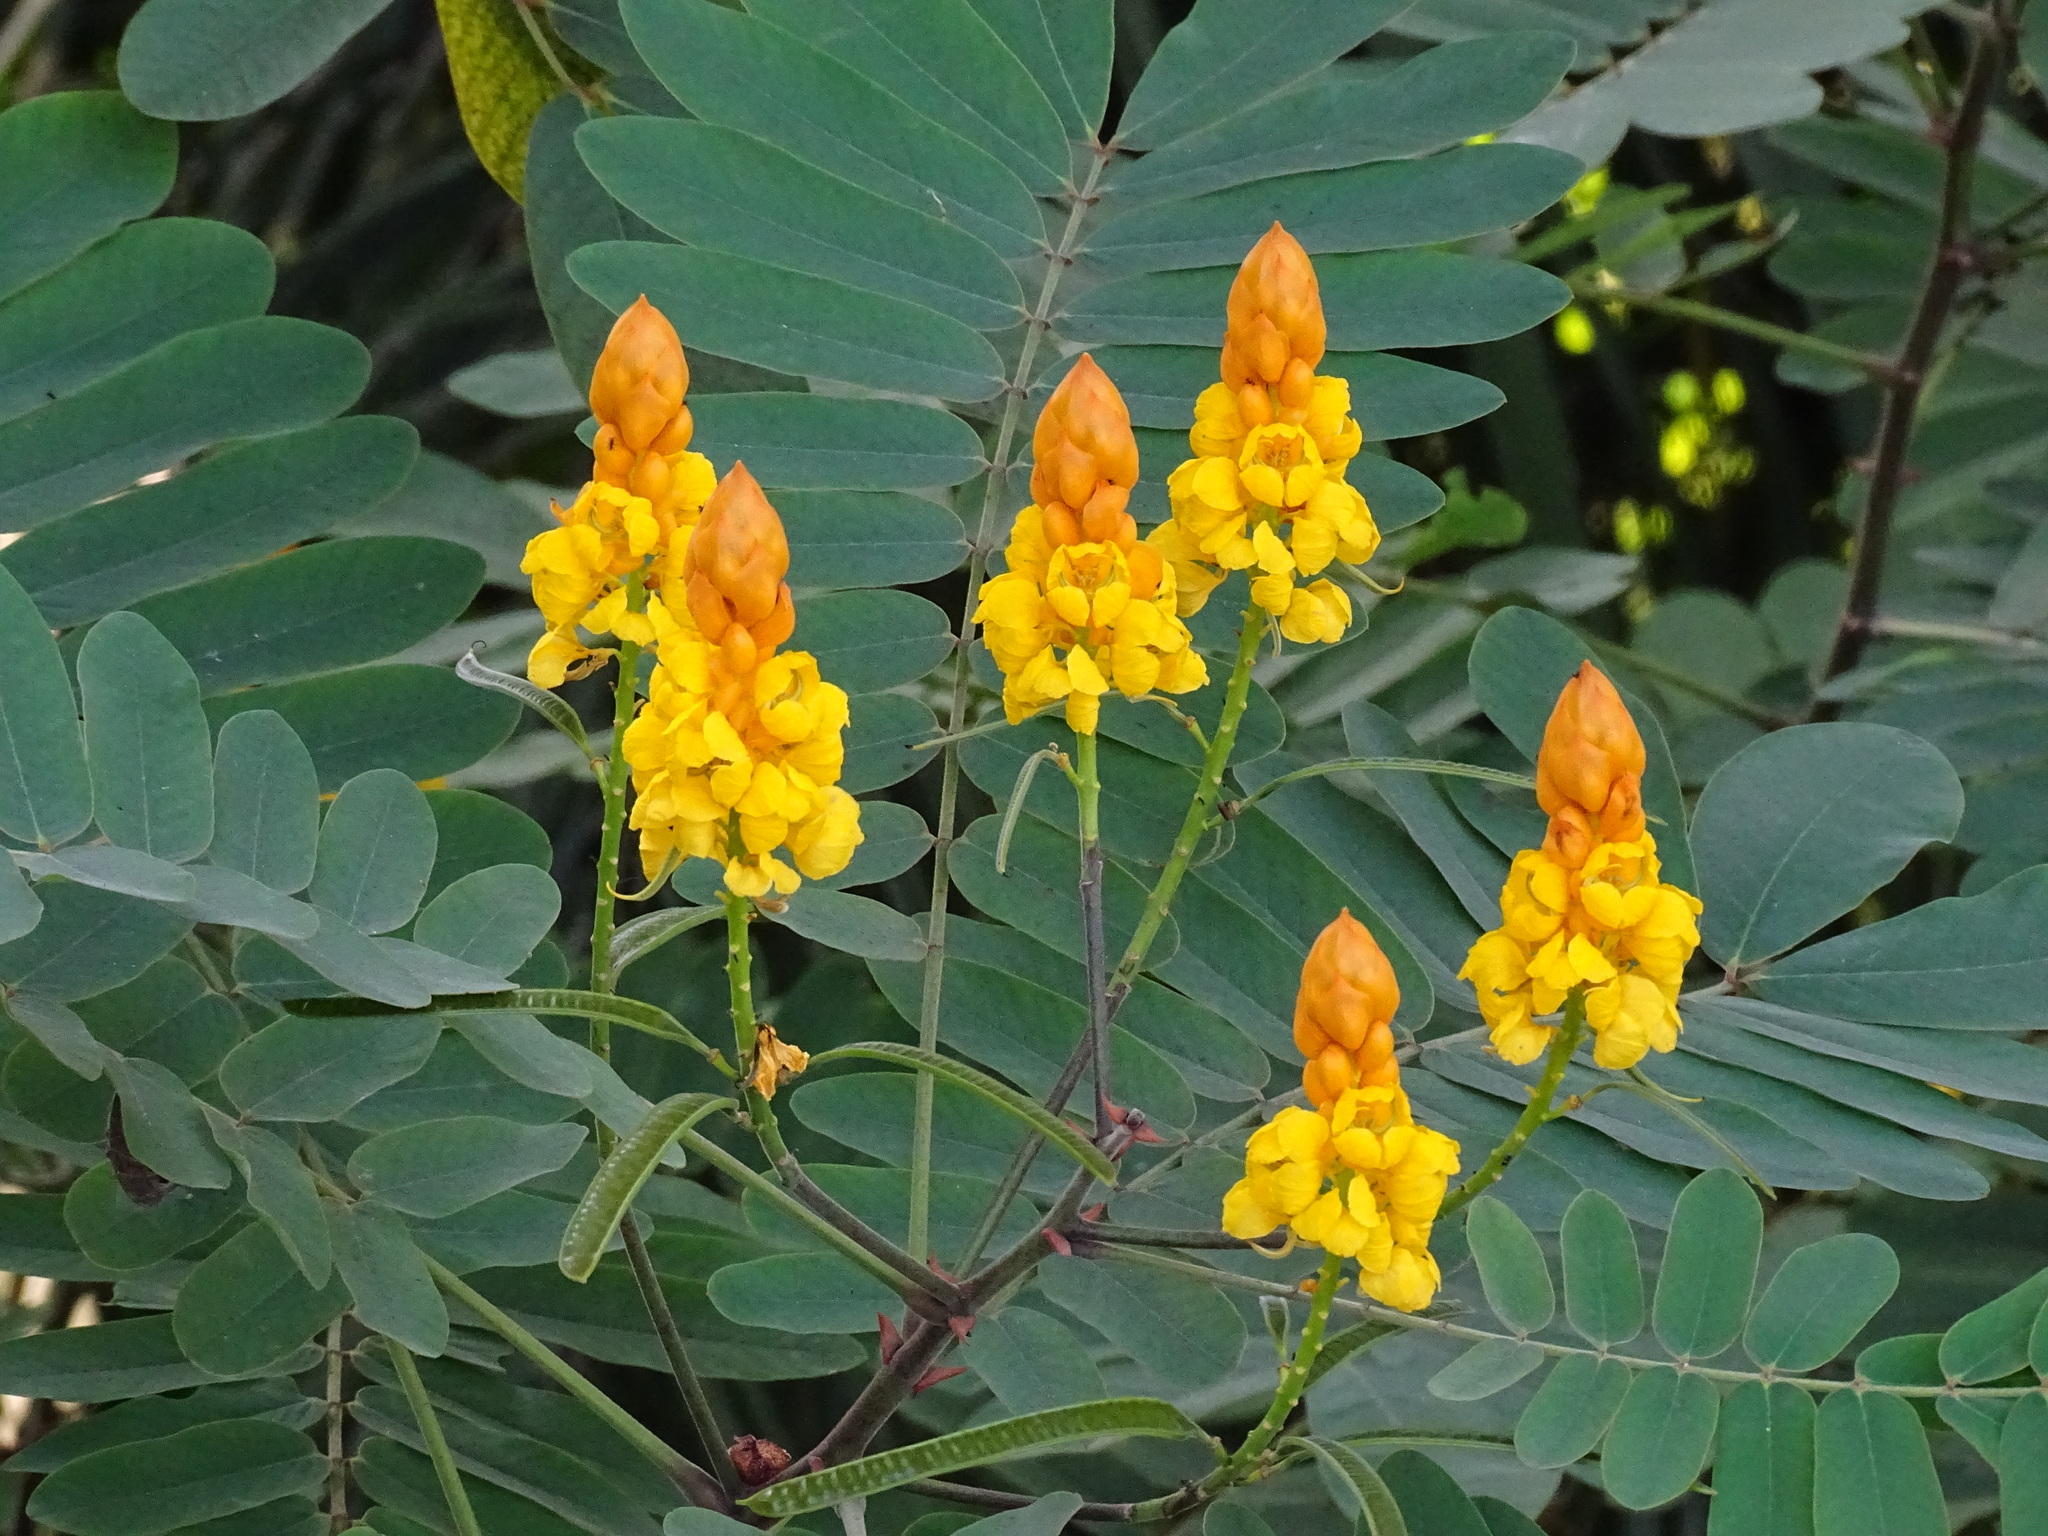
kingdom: Plantae
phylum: Tracheophyta
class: Magnoliopsida
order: Fabales
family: Fabaceae
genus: Senna
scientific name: Senna reticulata
